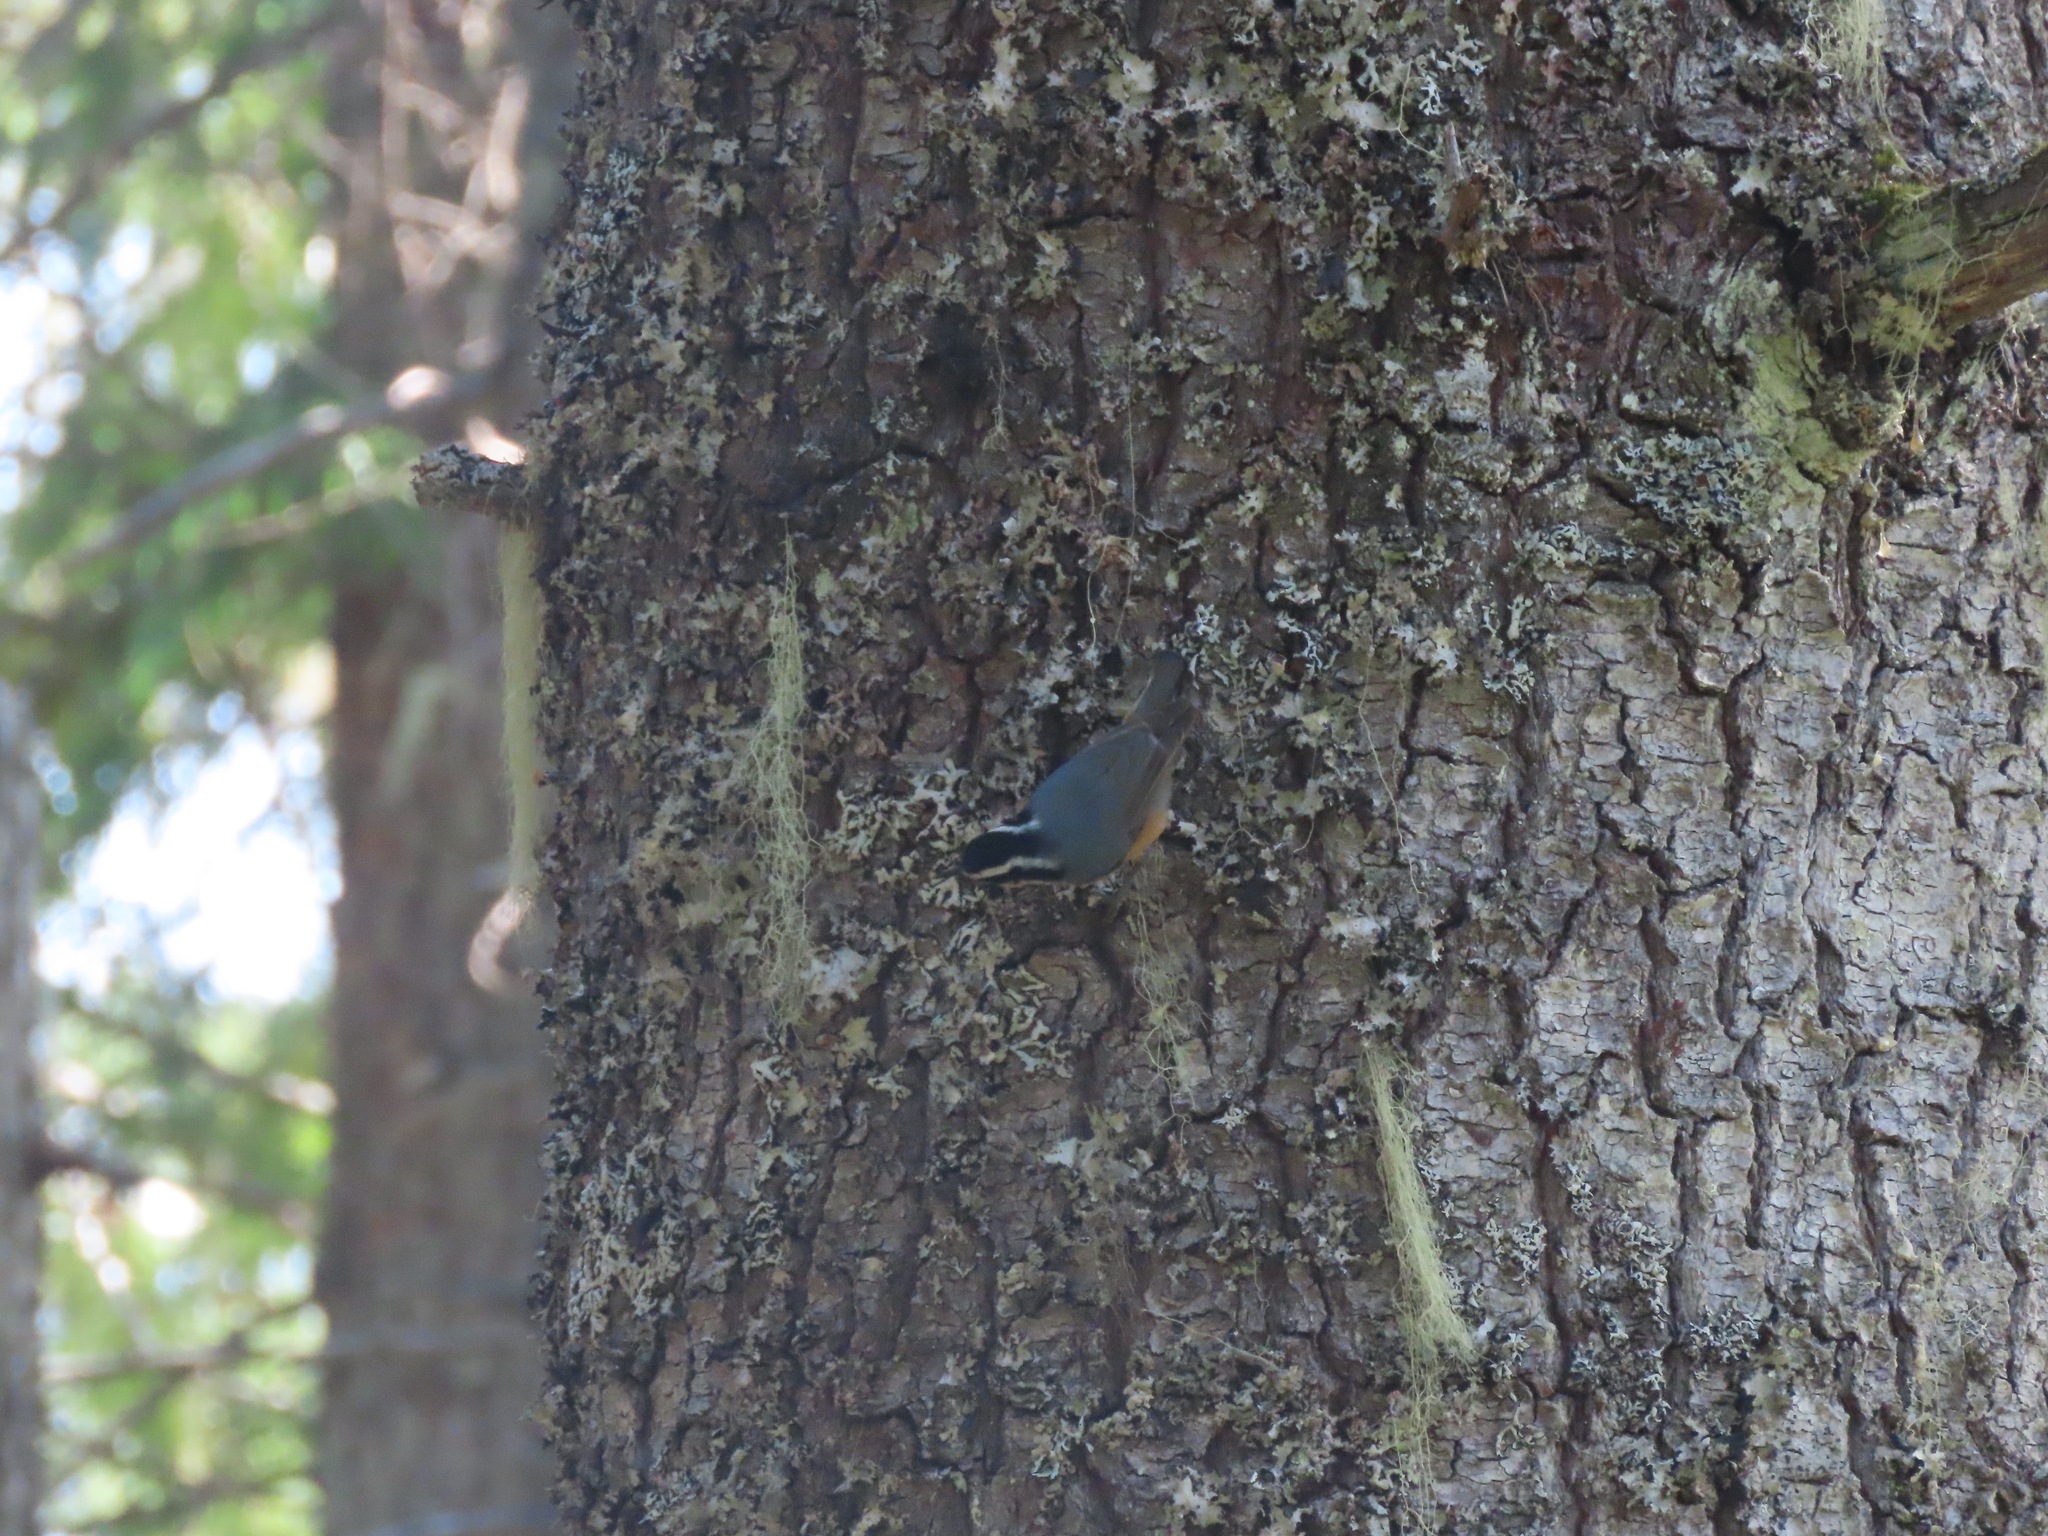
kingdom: Animalia
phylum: Chordata
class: Aves
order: Passeriformes
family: Sittidae
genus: Sitta
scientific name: Sitta canadensis
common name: Red-breasted nuthatch
